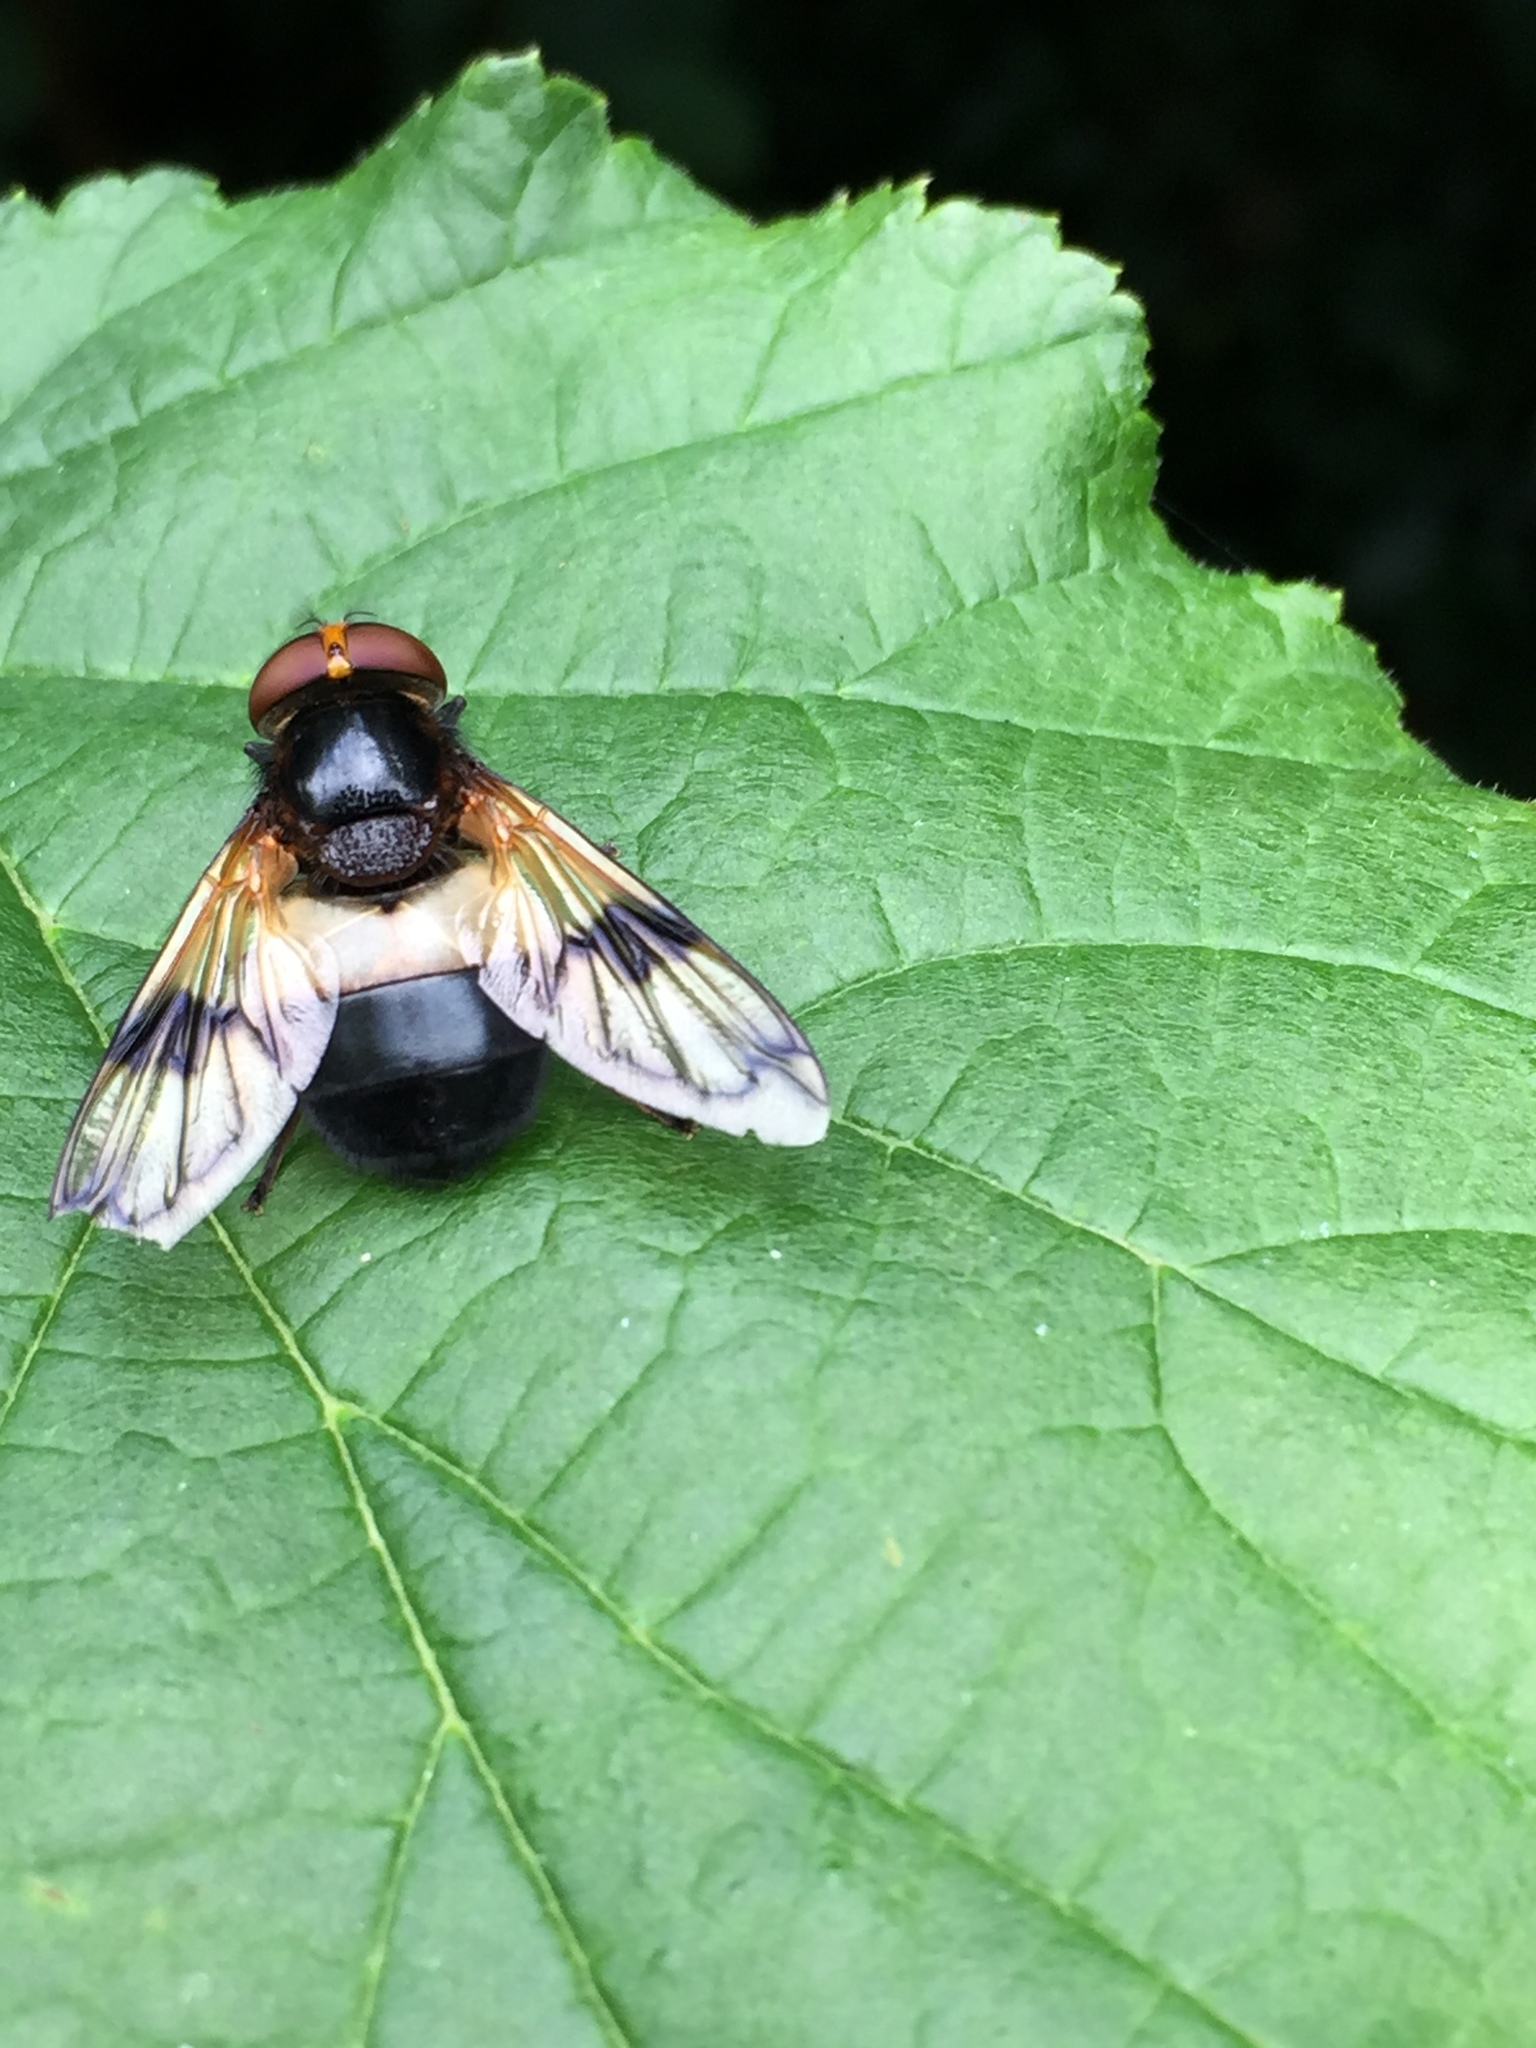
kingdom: Animalia
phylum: Arthropoda
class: Insecta
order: Diptera
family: Syrphidae
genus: Volucella
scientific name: Volucella pellucens
